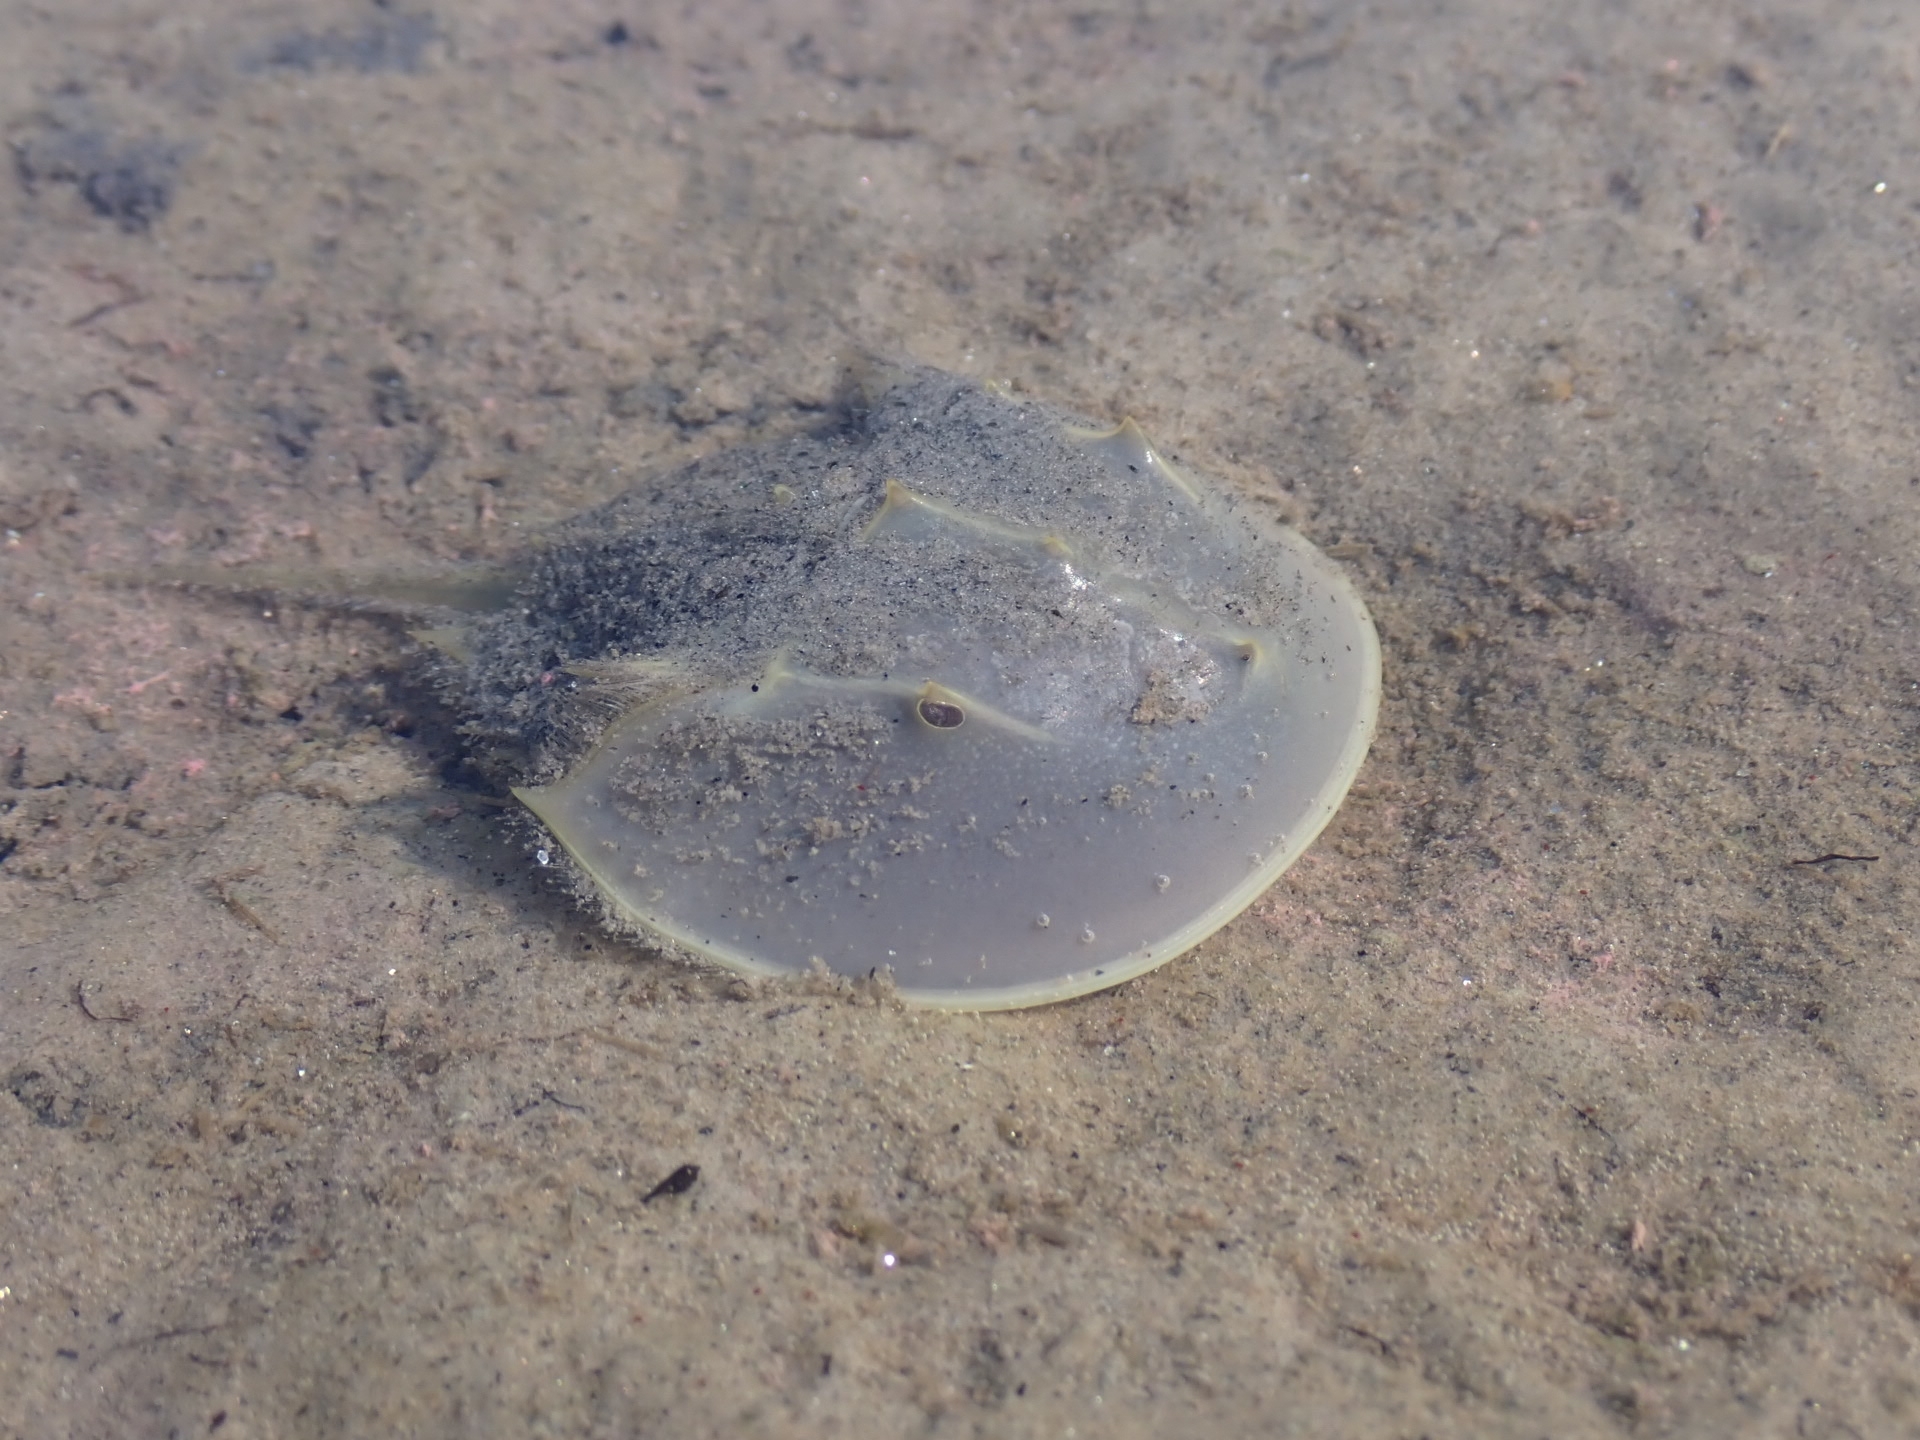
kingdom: Animalia
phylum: Arthropoda
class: Merostomata
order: Xiphosurida
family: Limulidae
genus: Limulus
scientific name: Limulus polyphemus
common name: Horseshoe crab
